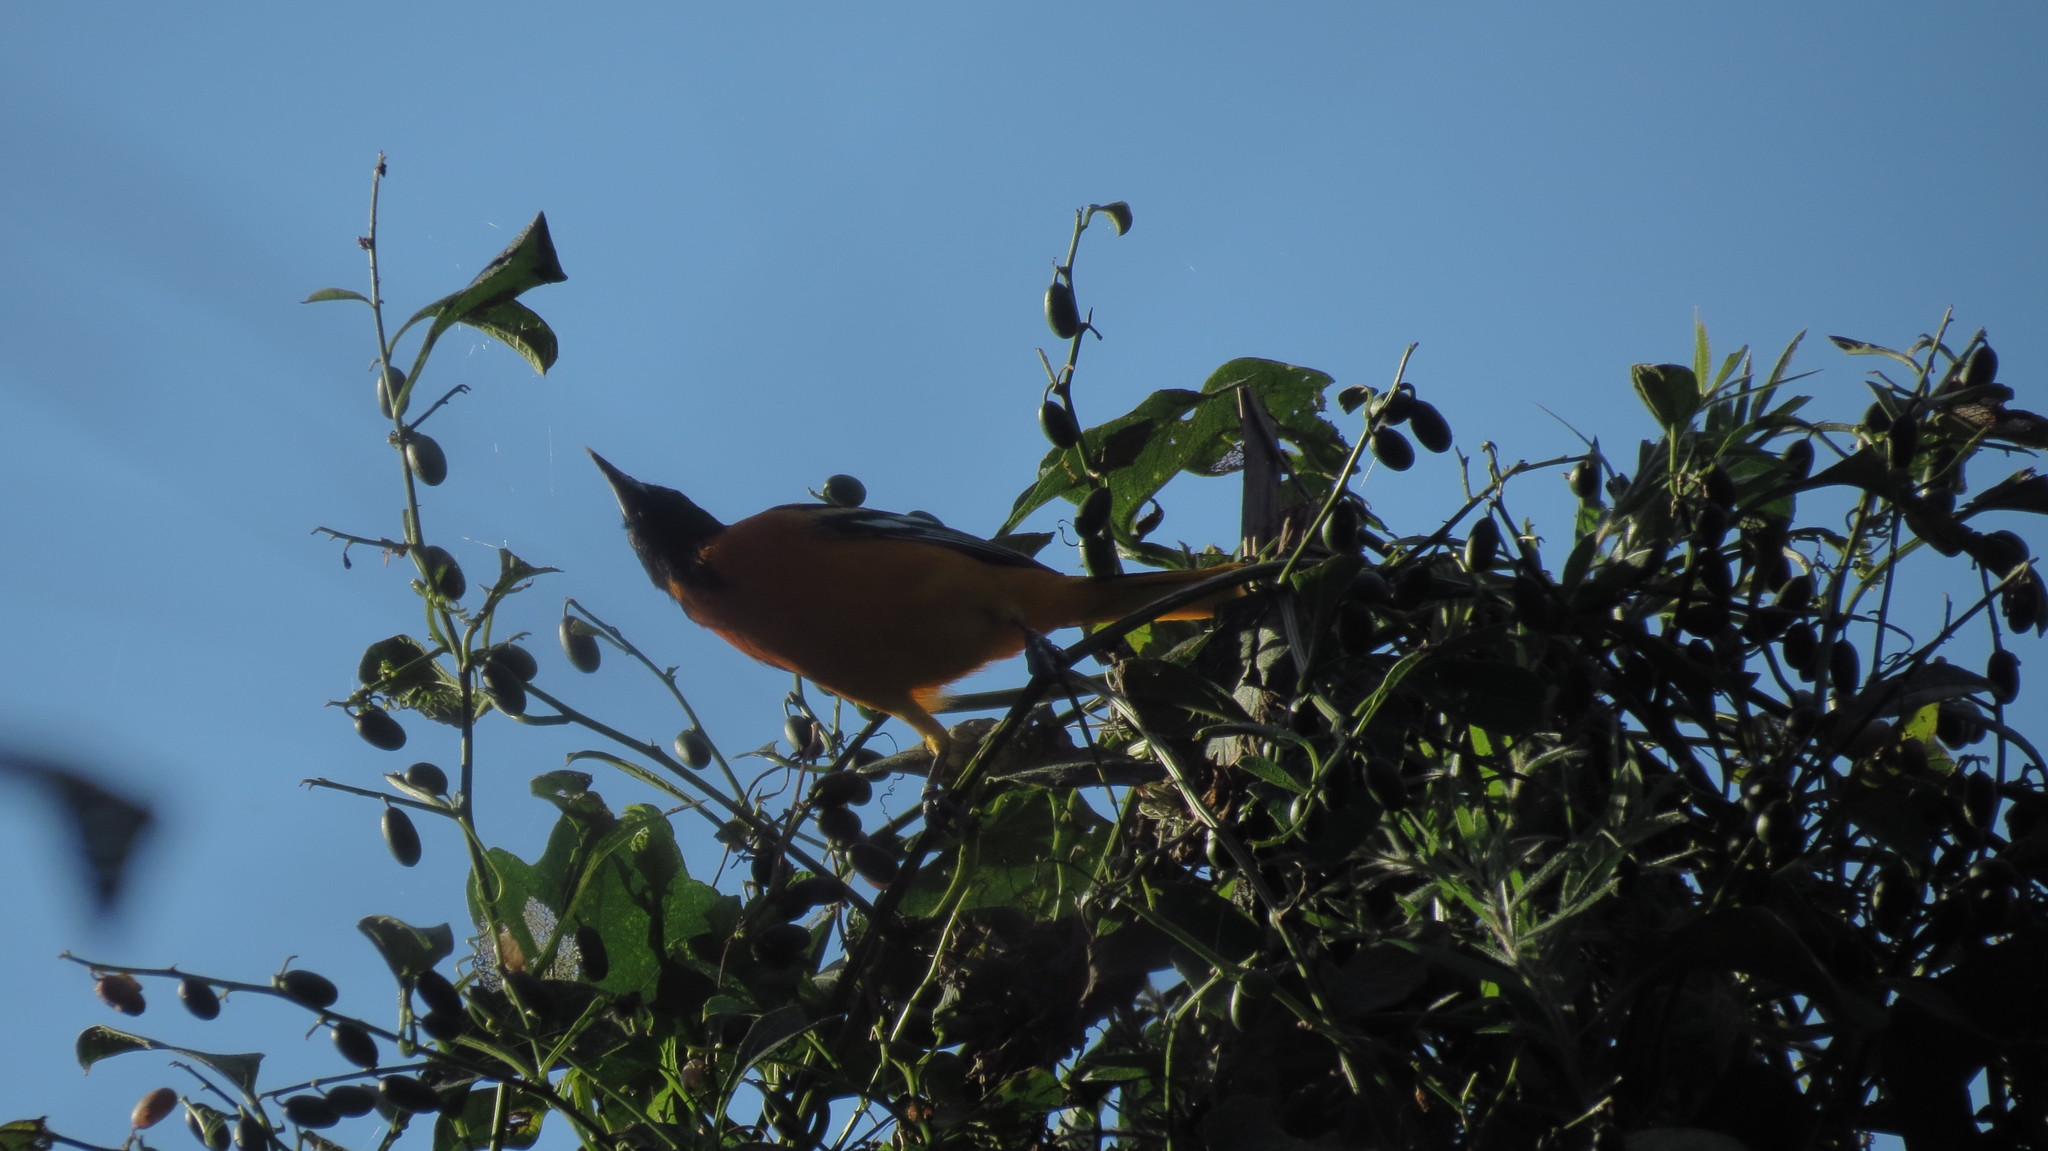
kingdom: Animalia
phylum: Chordata
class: Aves
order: Passeriformes
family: Icteridae
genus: Icterus
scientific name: Icterus galbula
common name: Baltimore oriole
